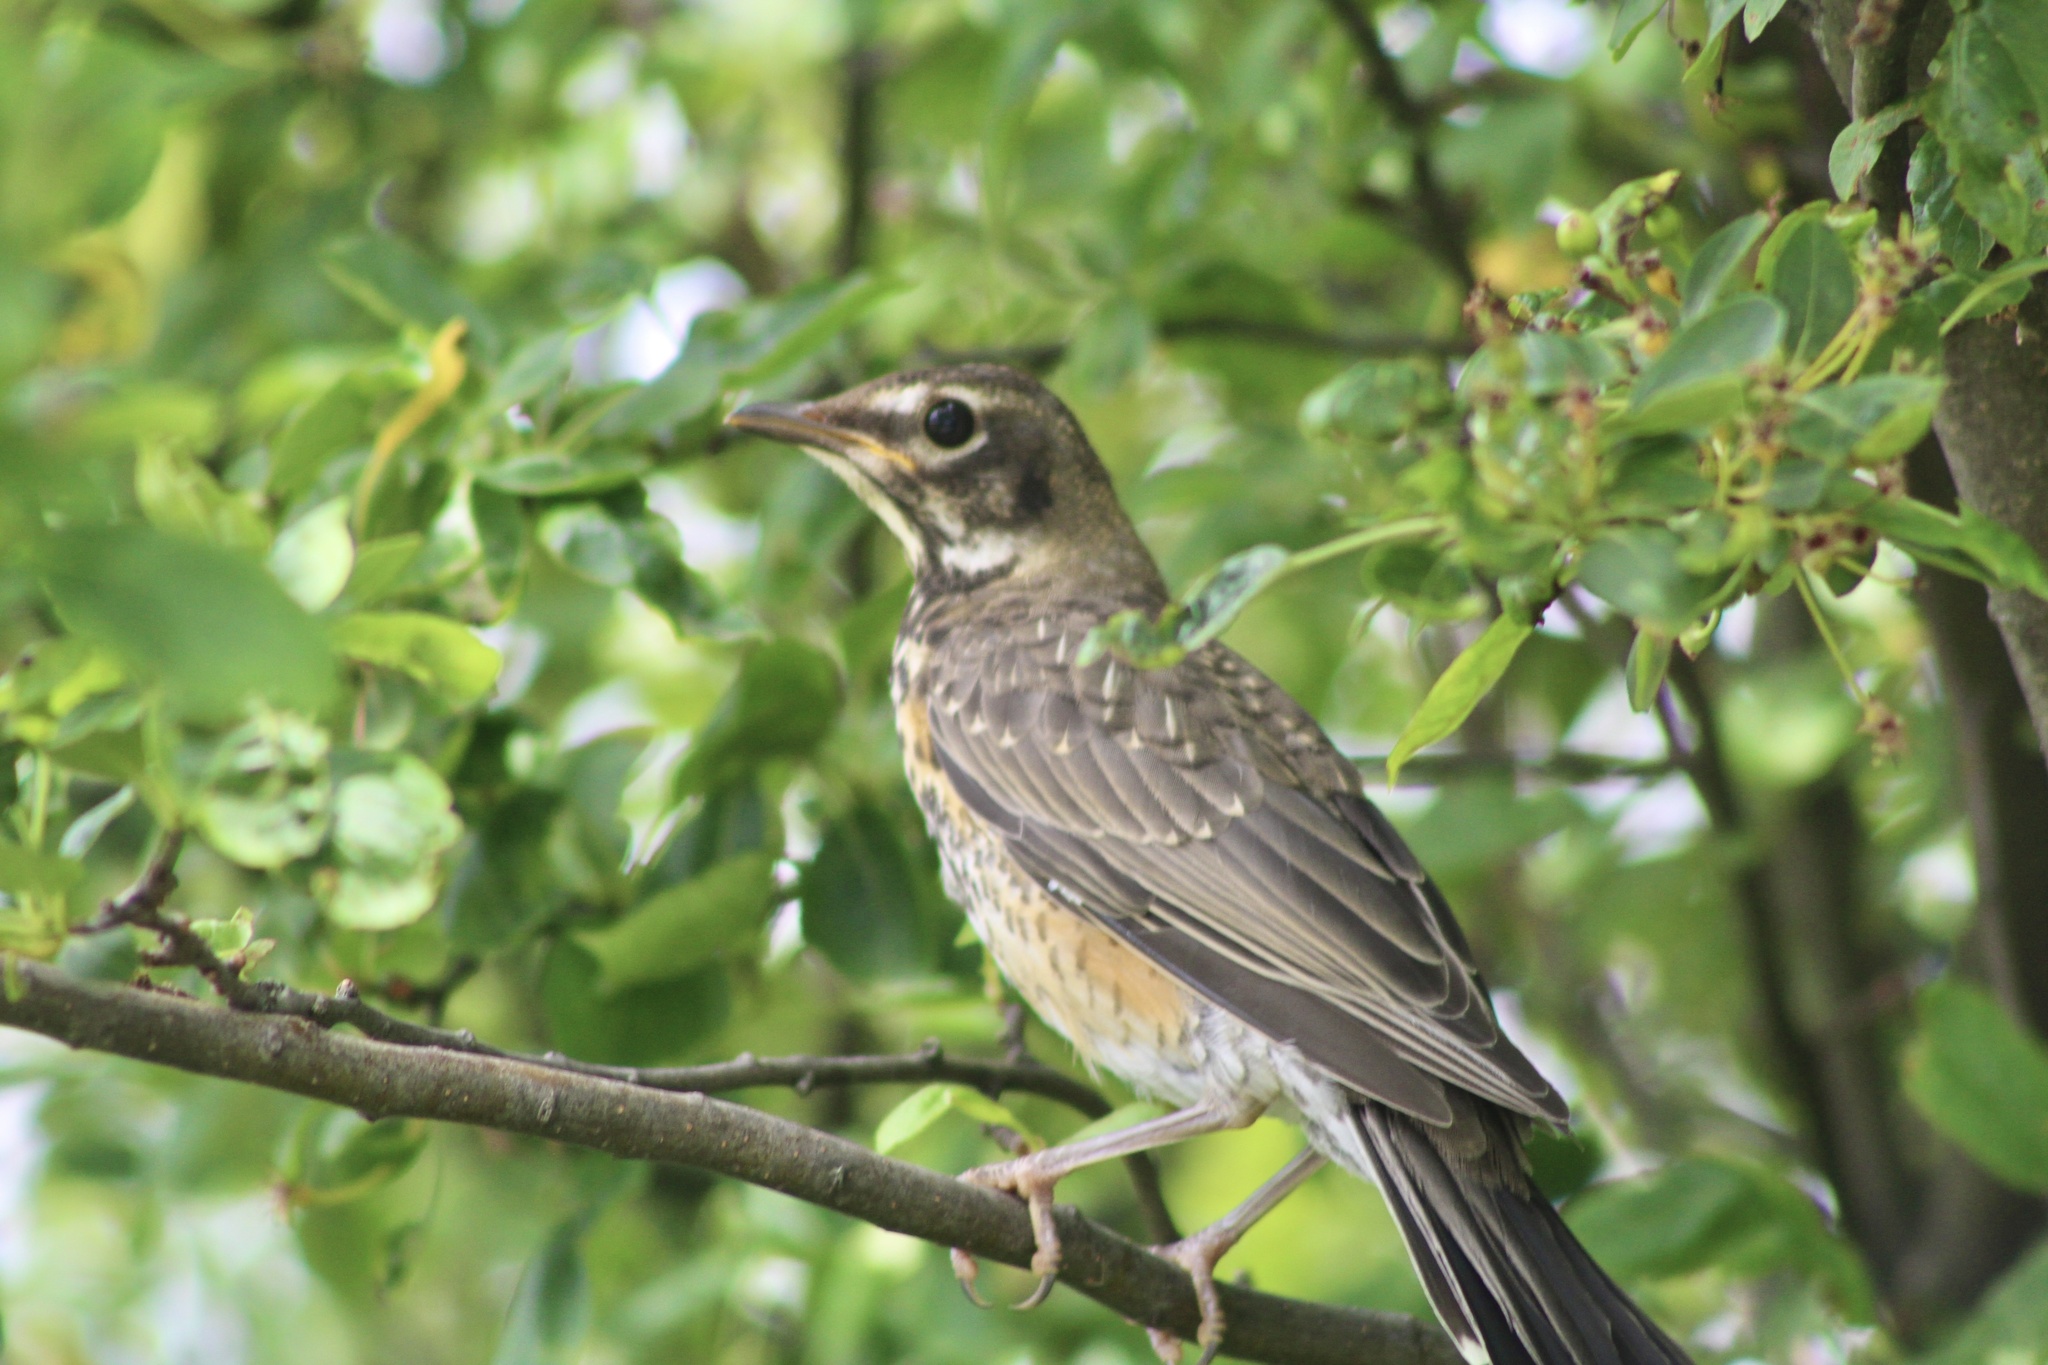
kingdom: Animalia
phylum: Chordata
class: Aves
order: Passeriformes
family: Turdidae
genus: Turdus
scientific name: Turdus migratorius
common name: American robin
